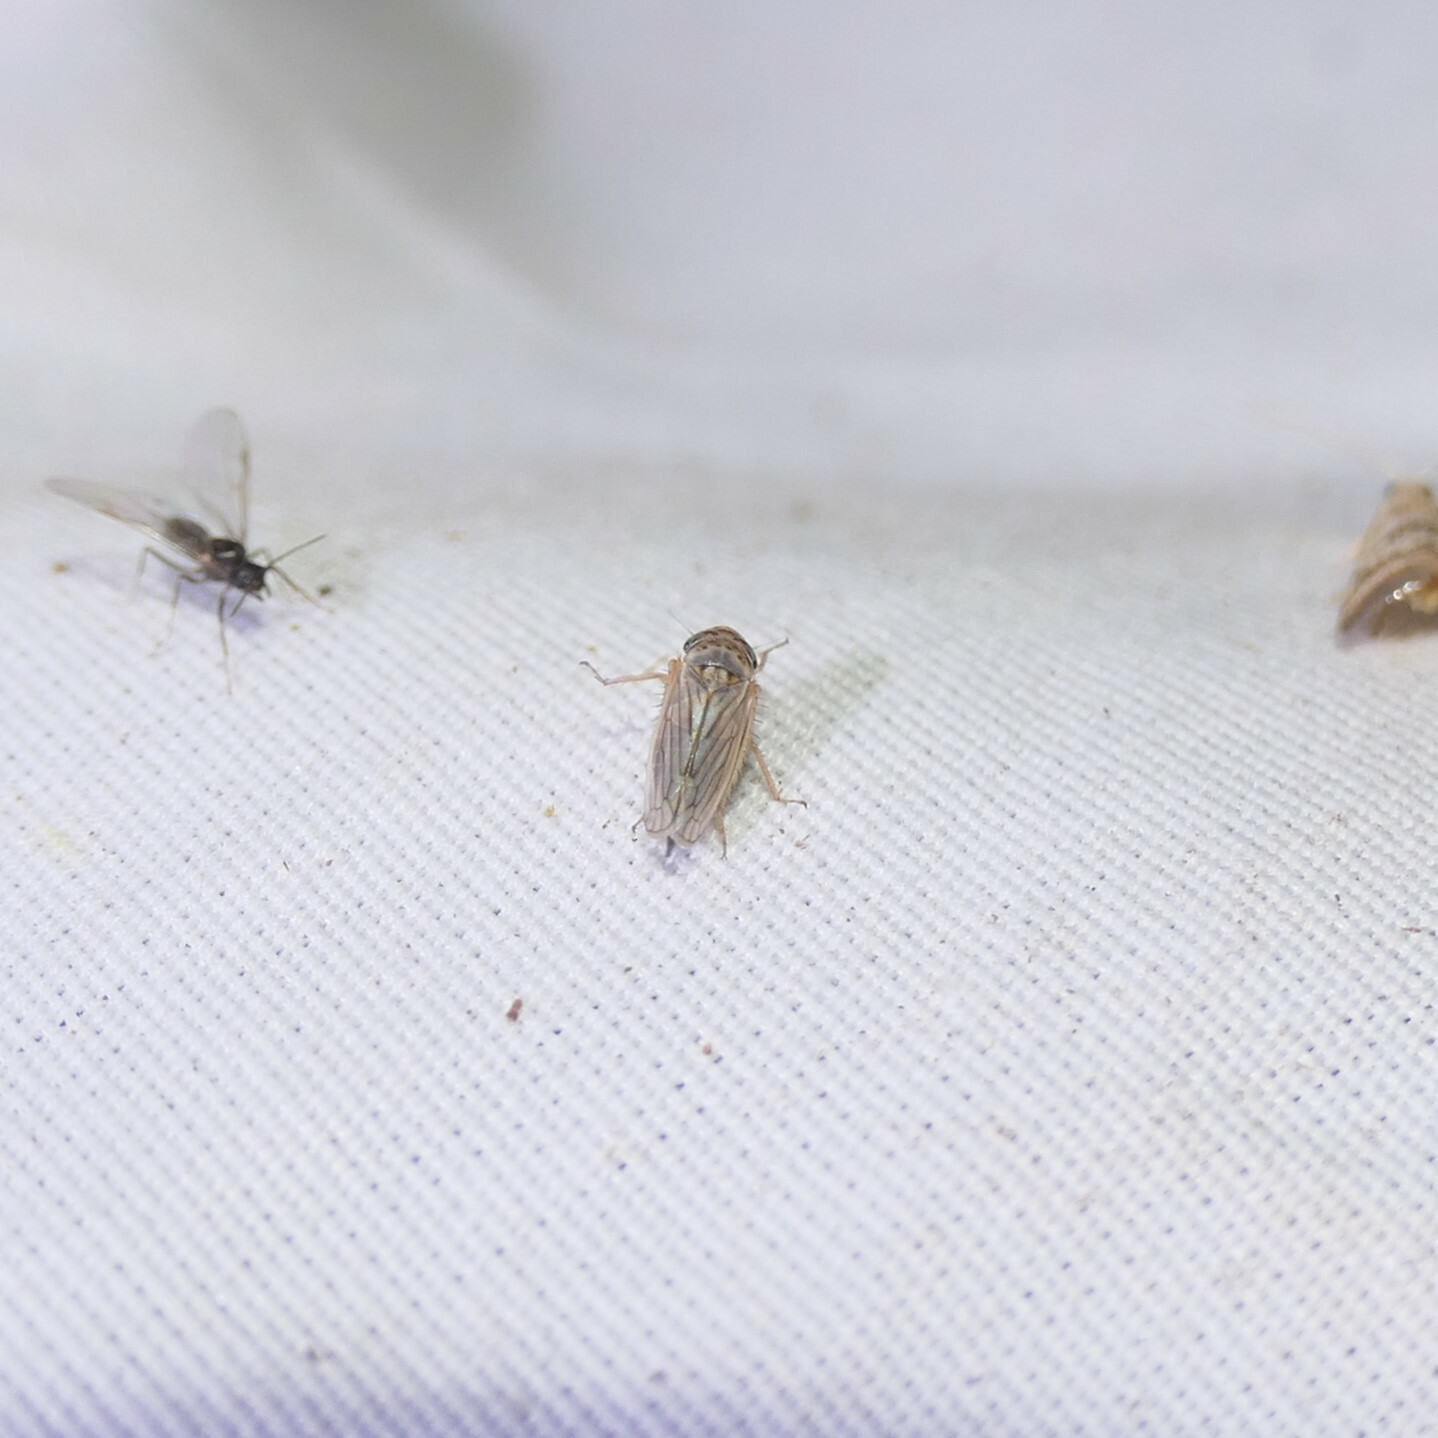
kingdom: Animalia
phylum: Arthropoda
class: Insecta
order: Hemiptera
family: Cicadellidae
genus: Exitianus
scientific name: Exitianus exitiosus
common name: Gray lawn leafhopper
